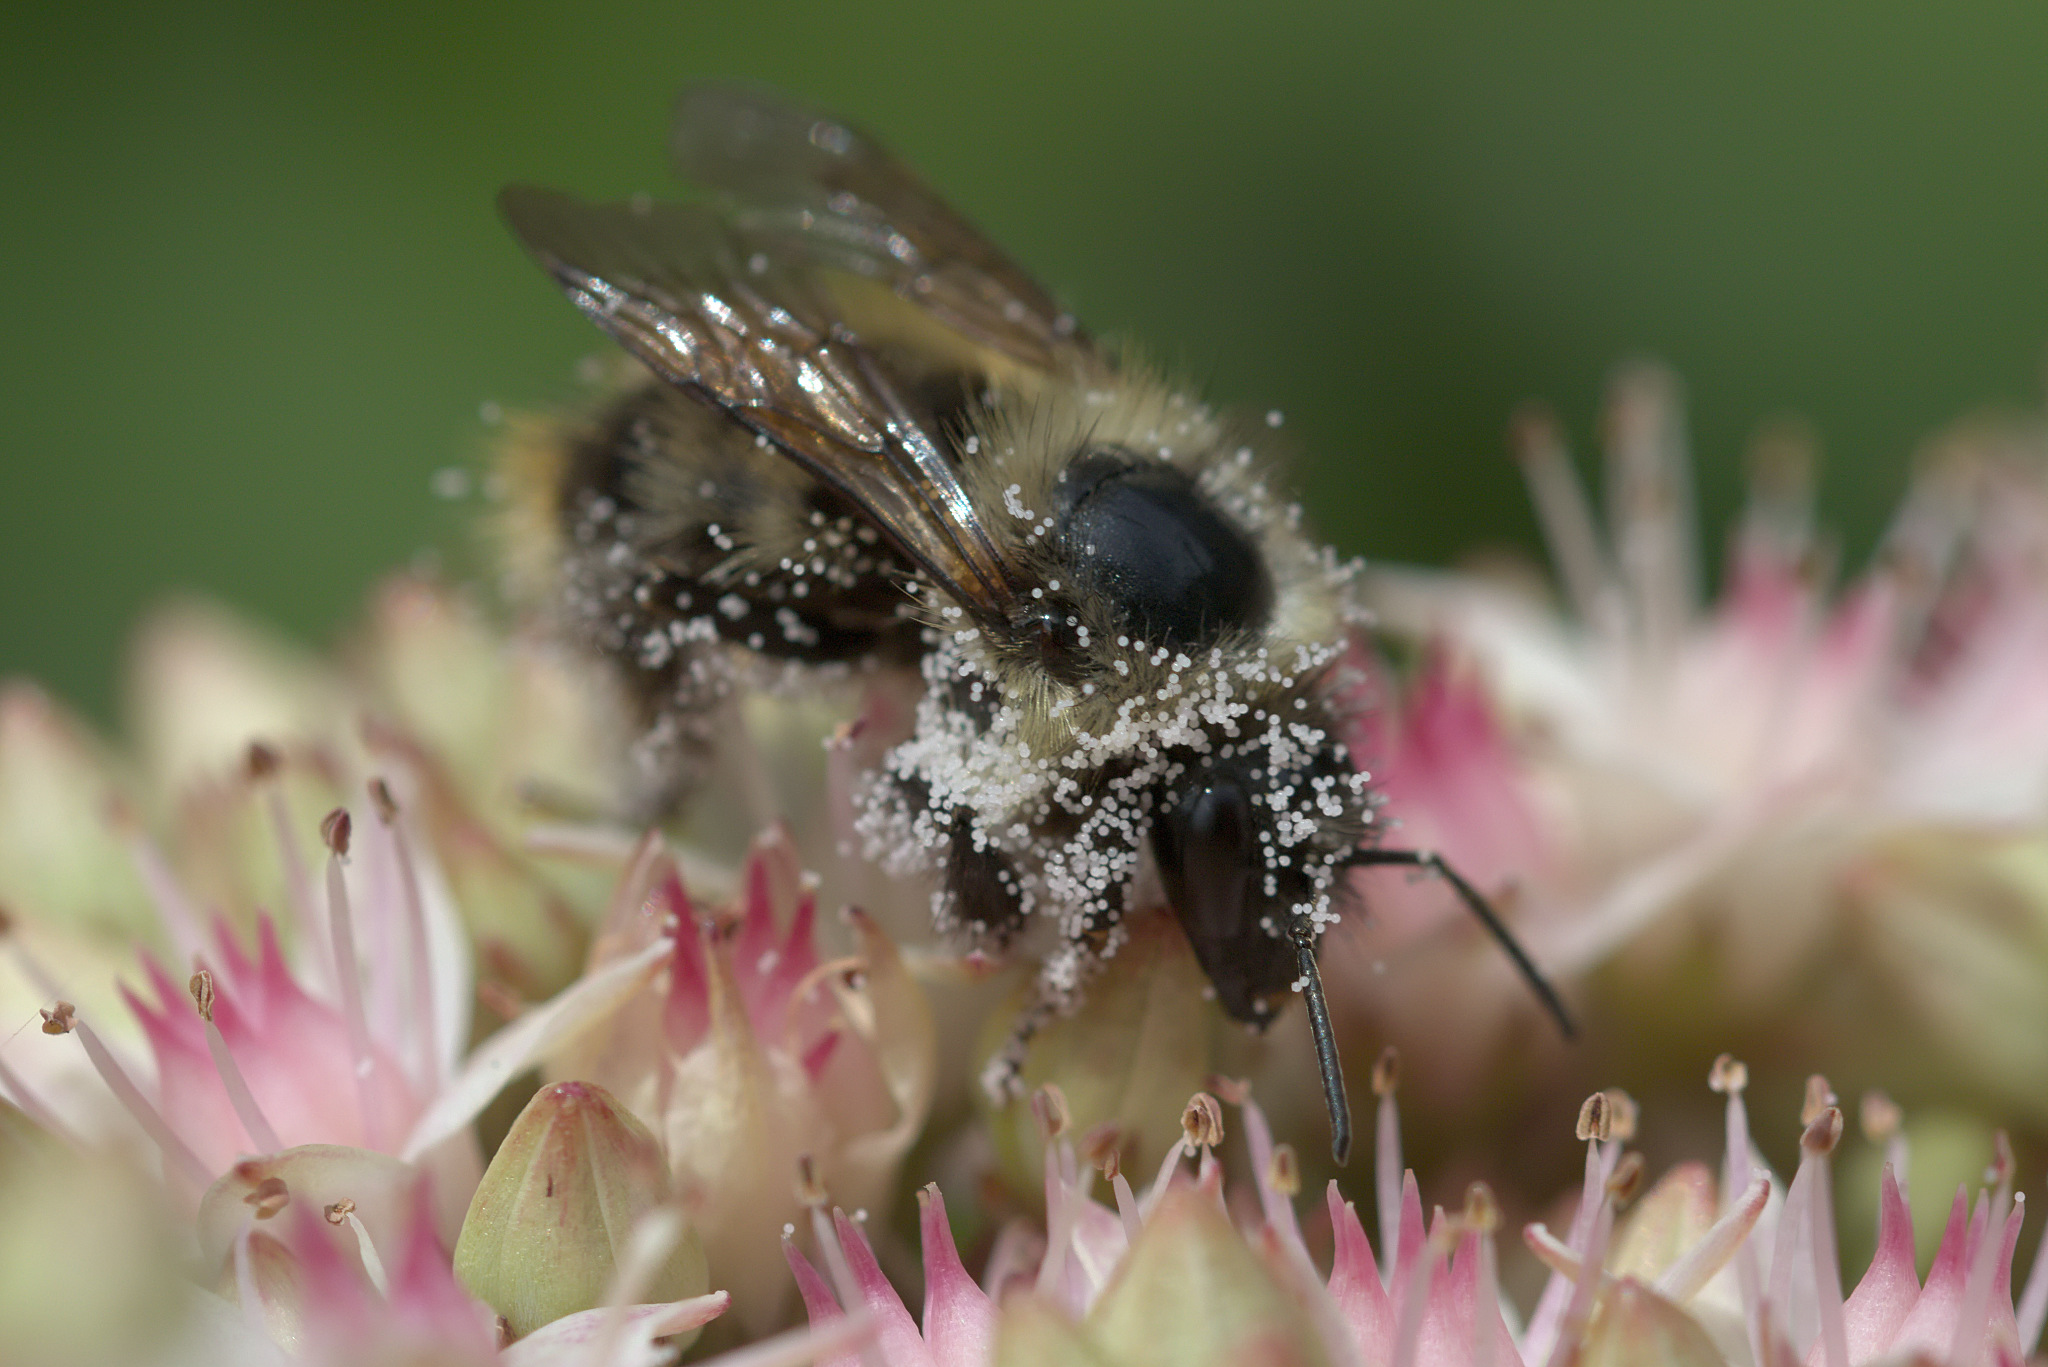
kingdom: Animalia
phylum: Arthropoda
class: Insecta
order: Hymenoptera
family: Apidae
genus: Bombus
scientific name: Bombus mixtus
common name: Fuzzy-horned bumble bee
